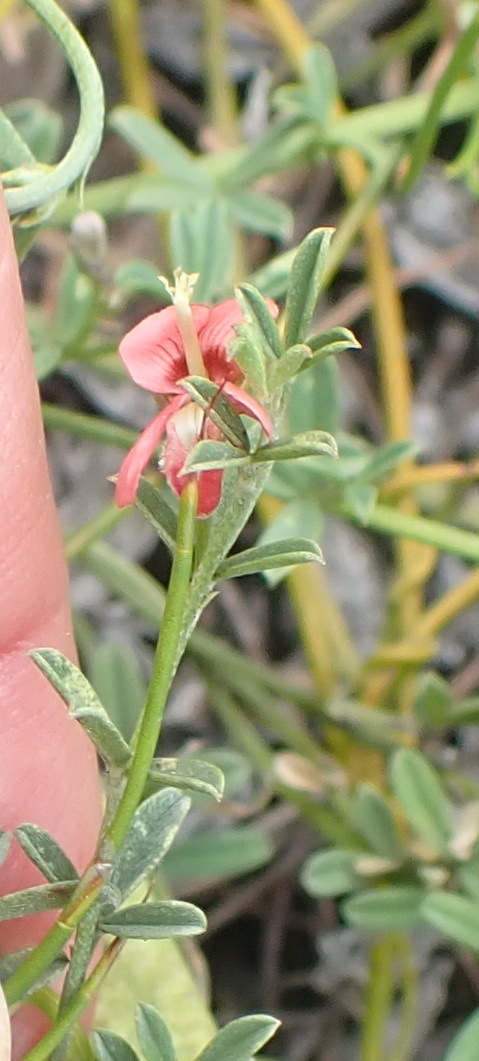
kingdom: Plantae
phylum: Tracheophyta
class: Magnoliopsida
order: Fabales
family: Fabaceae
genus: Indigofera
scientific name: Indigofera priorii
